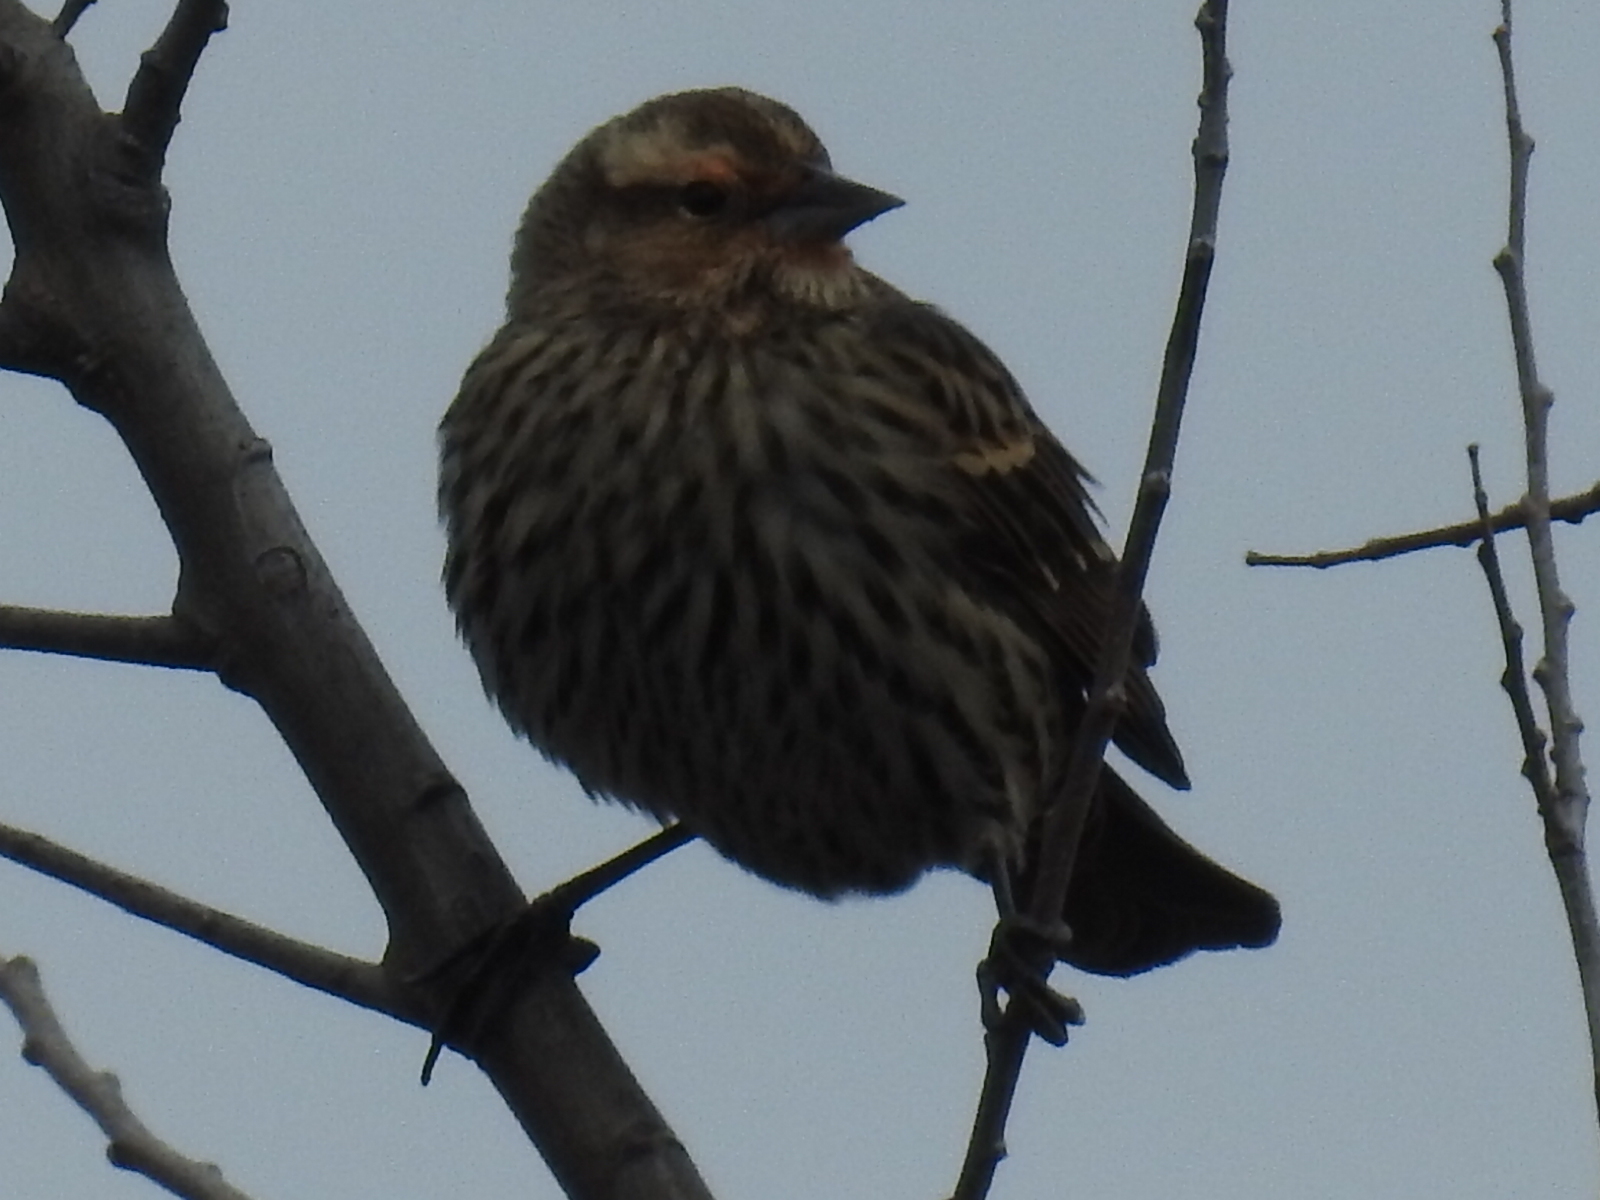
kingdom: Animalia
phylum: Chordata
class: Aves
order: Passeriformes
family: Icteridae
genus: Agelaius
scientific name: Agelaius phoeniceus
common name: Red-winged blackbird
